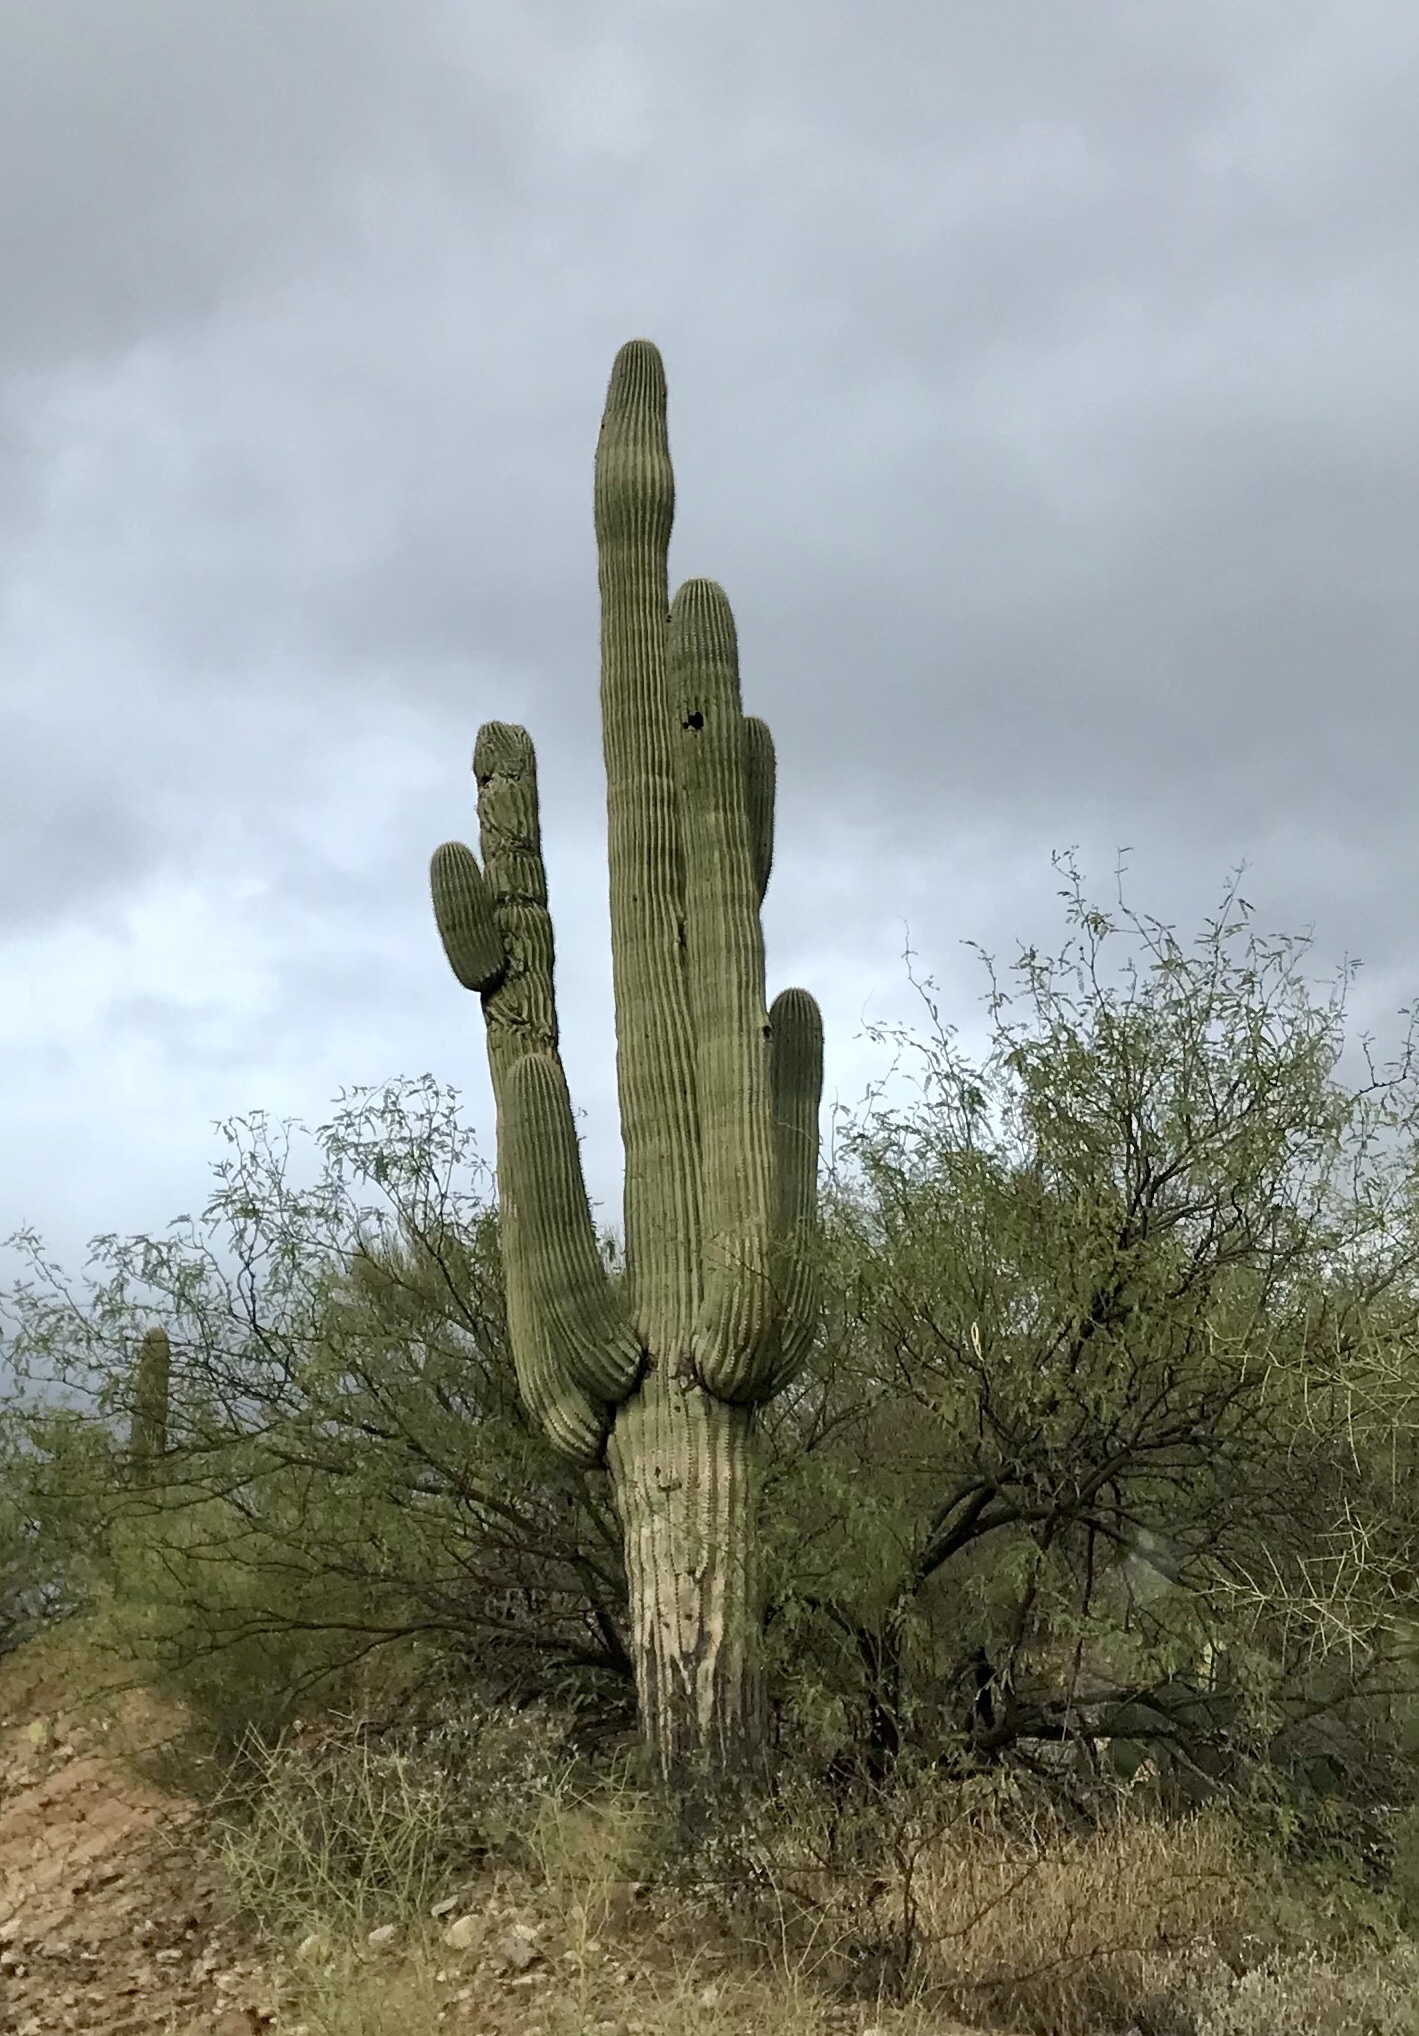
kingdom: Plantae
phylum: Tracheophyta
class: Magnoliopsida
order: Caryophyllales
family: Cactaceae
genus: Carnegiea
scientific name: Carnegiea gigantea
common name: Saguaro
